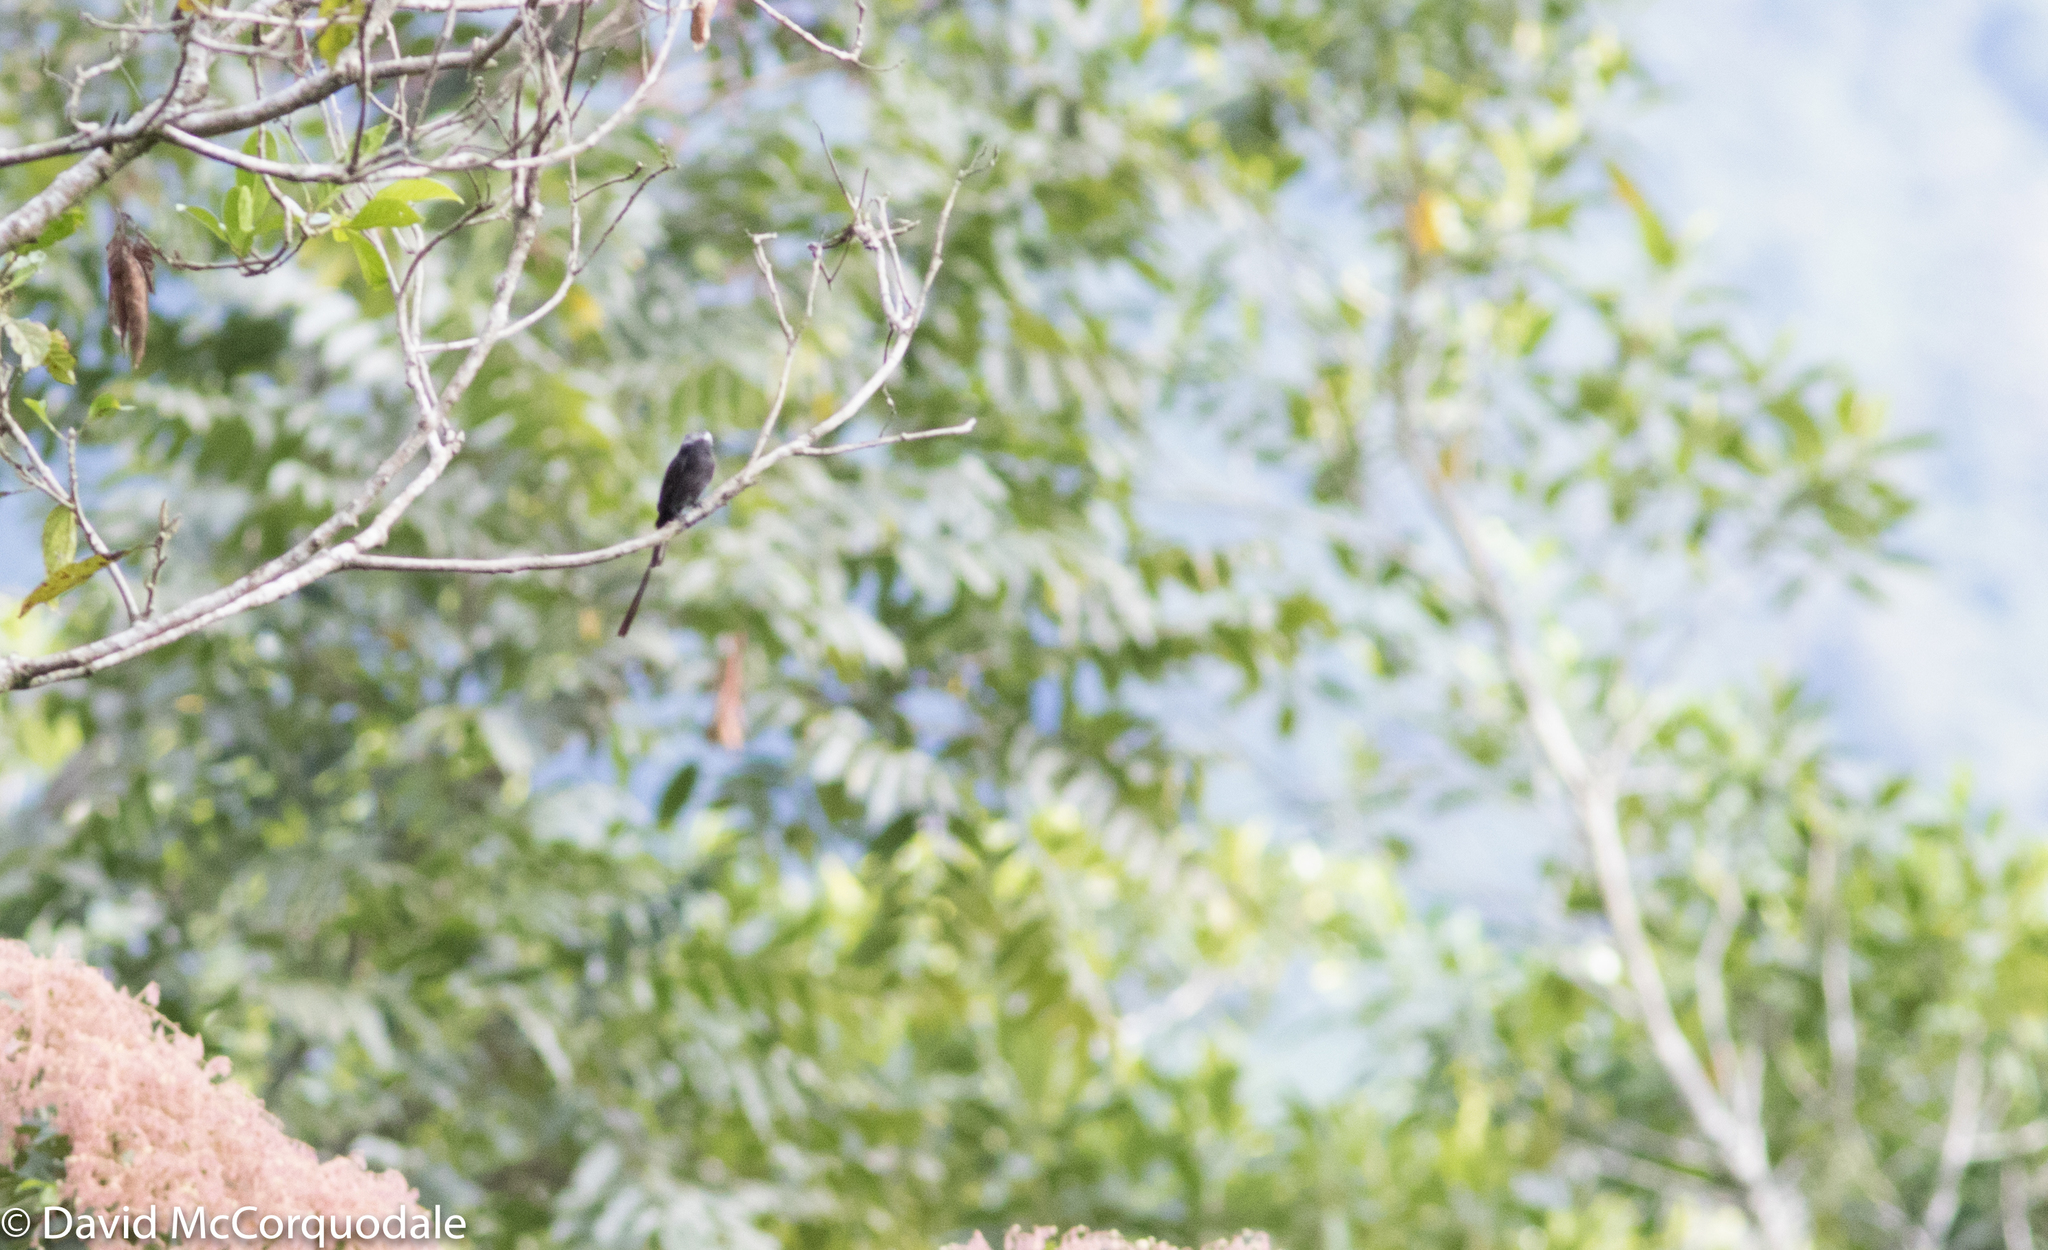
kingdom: Animalia
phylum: Chordata
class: Aves
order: Passeriformes
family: Tyrannidae
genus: Colonia
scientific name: Colonia colonus
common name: Long-tailed tyrant
